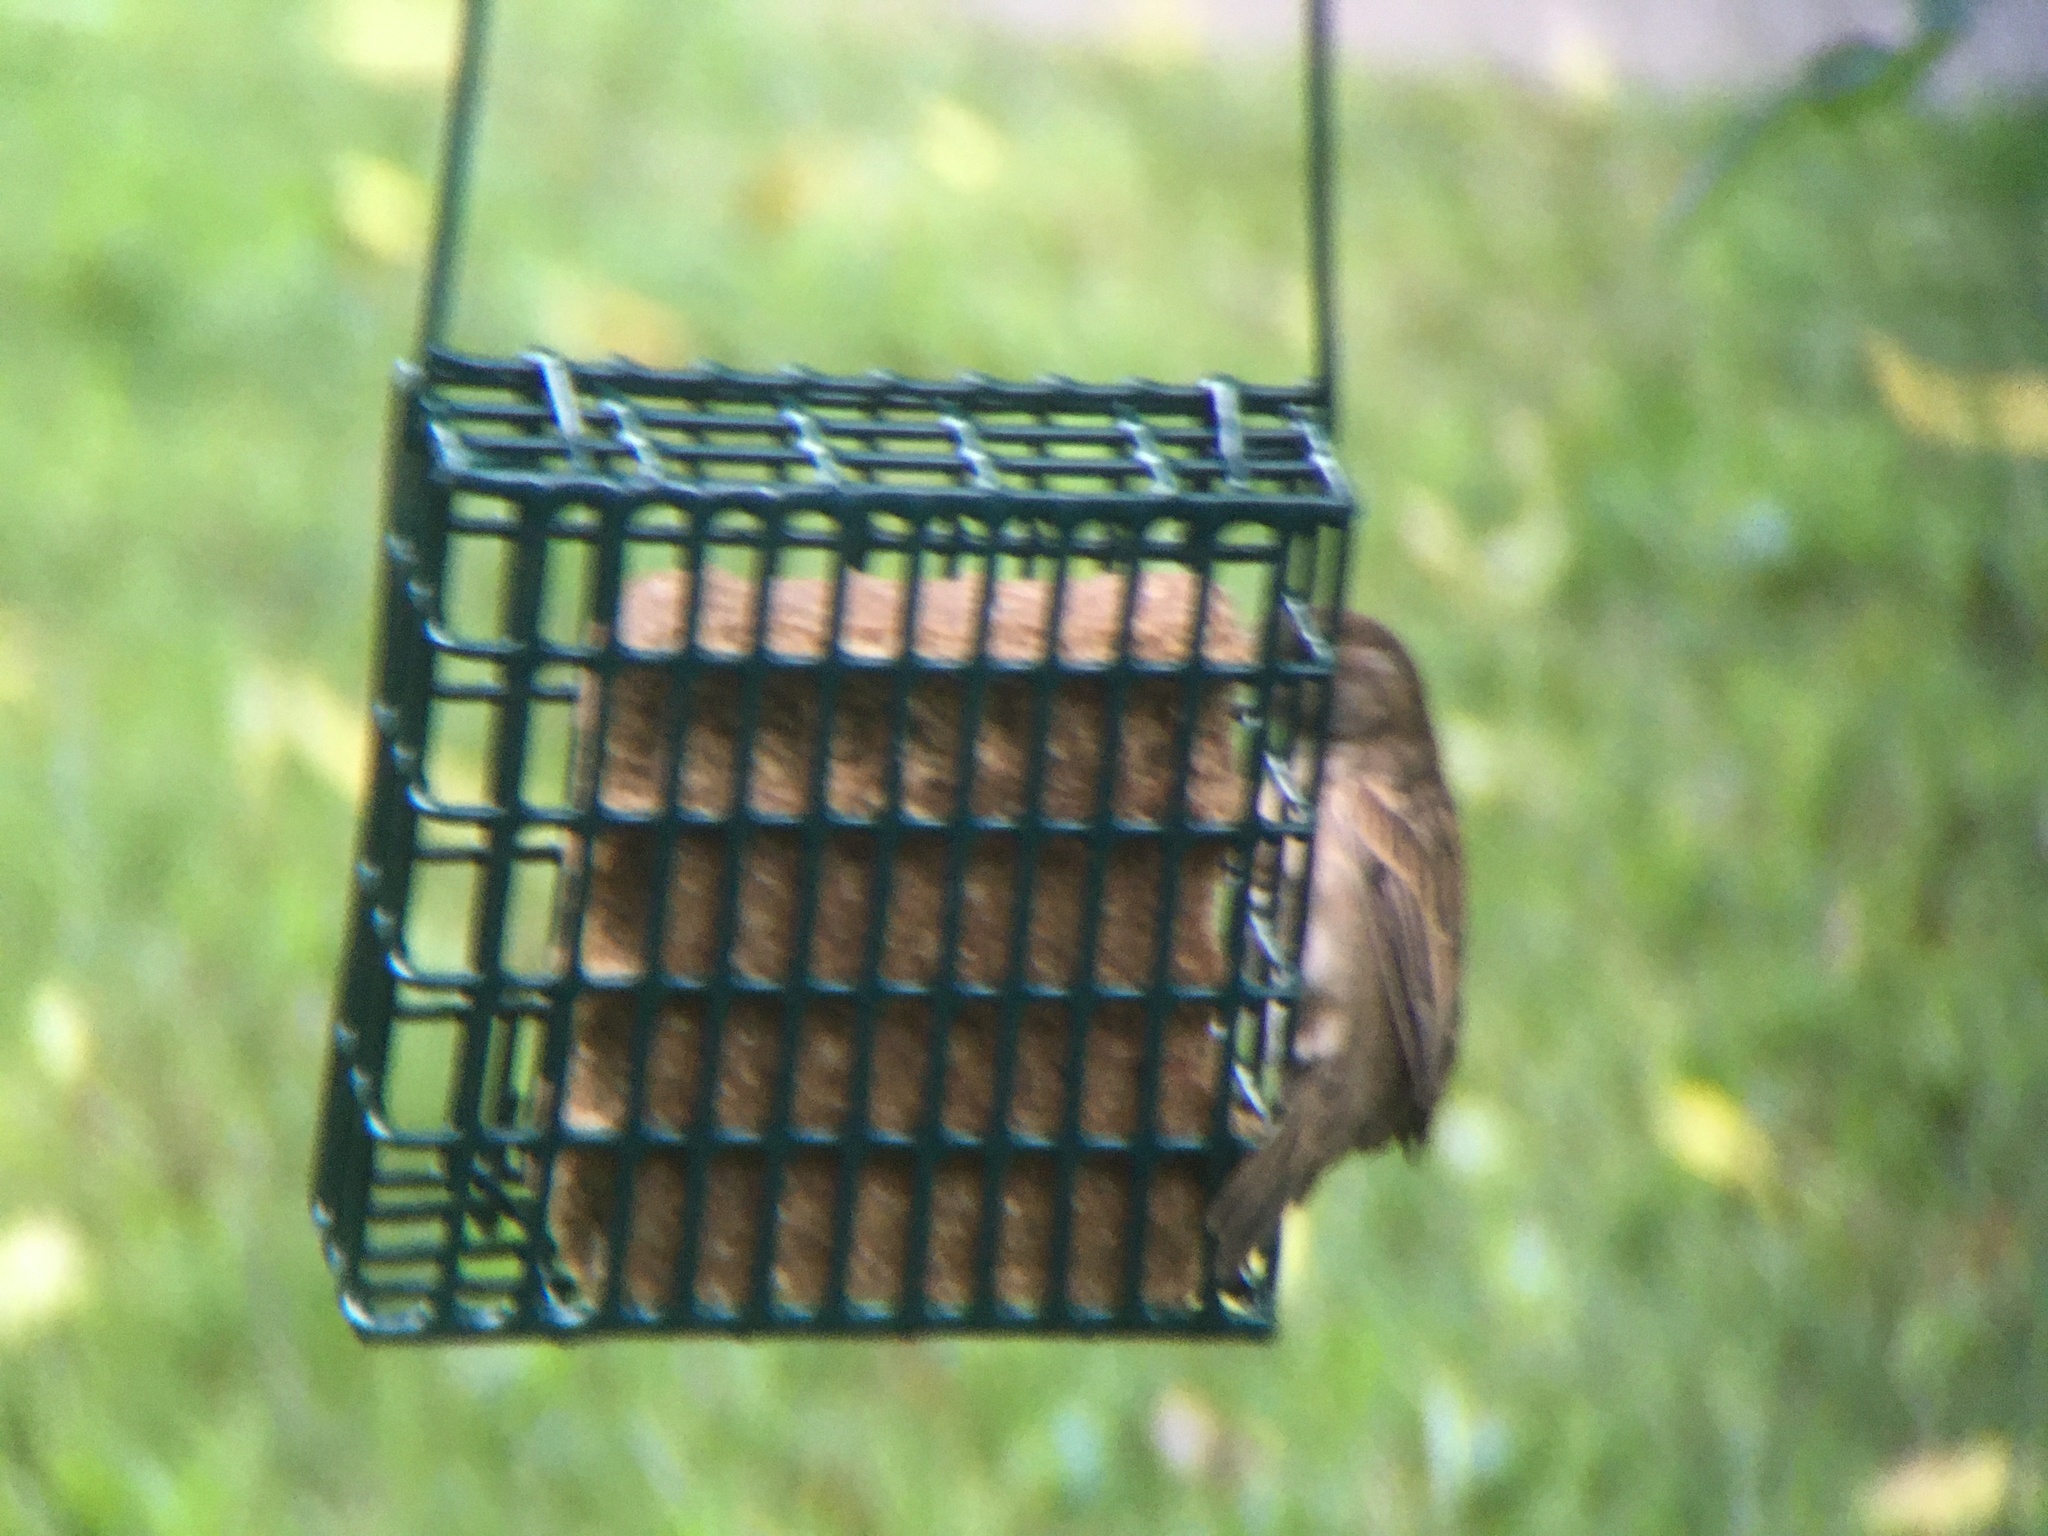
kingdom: Animalia
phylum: Chordata
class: Aves
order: Passeriformes
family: Passeridae
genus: Passer
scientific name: Passer domesticus
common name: House sparrow
